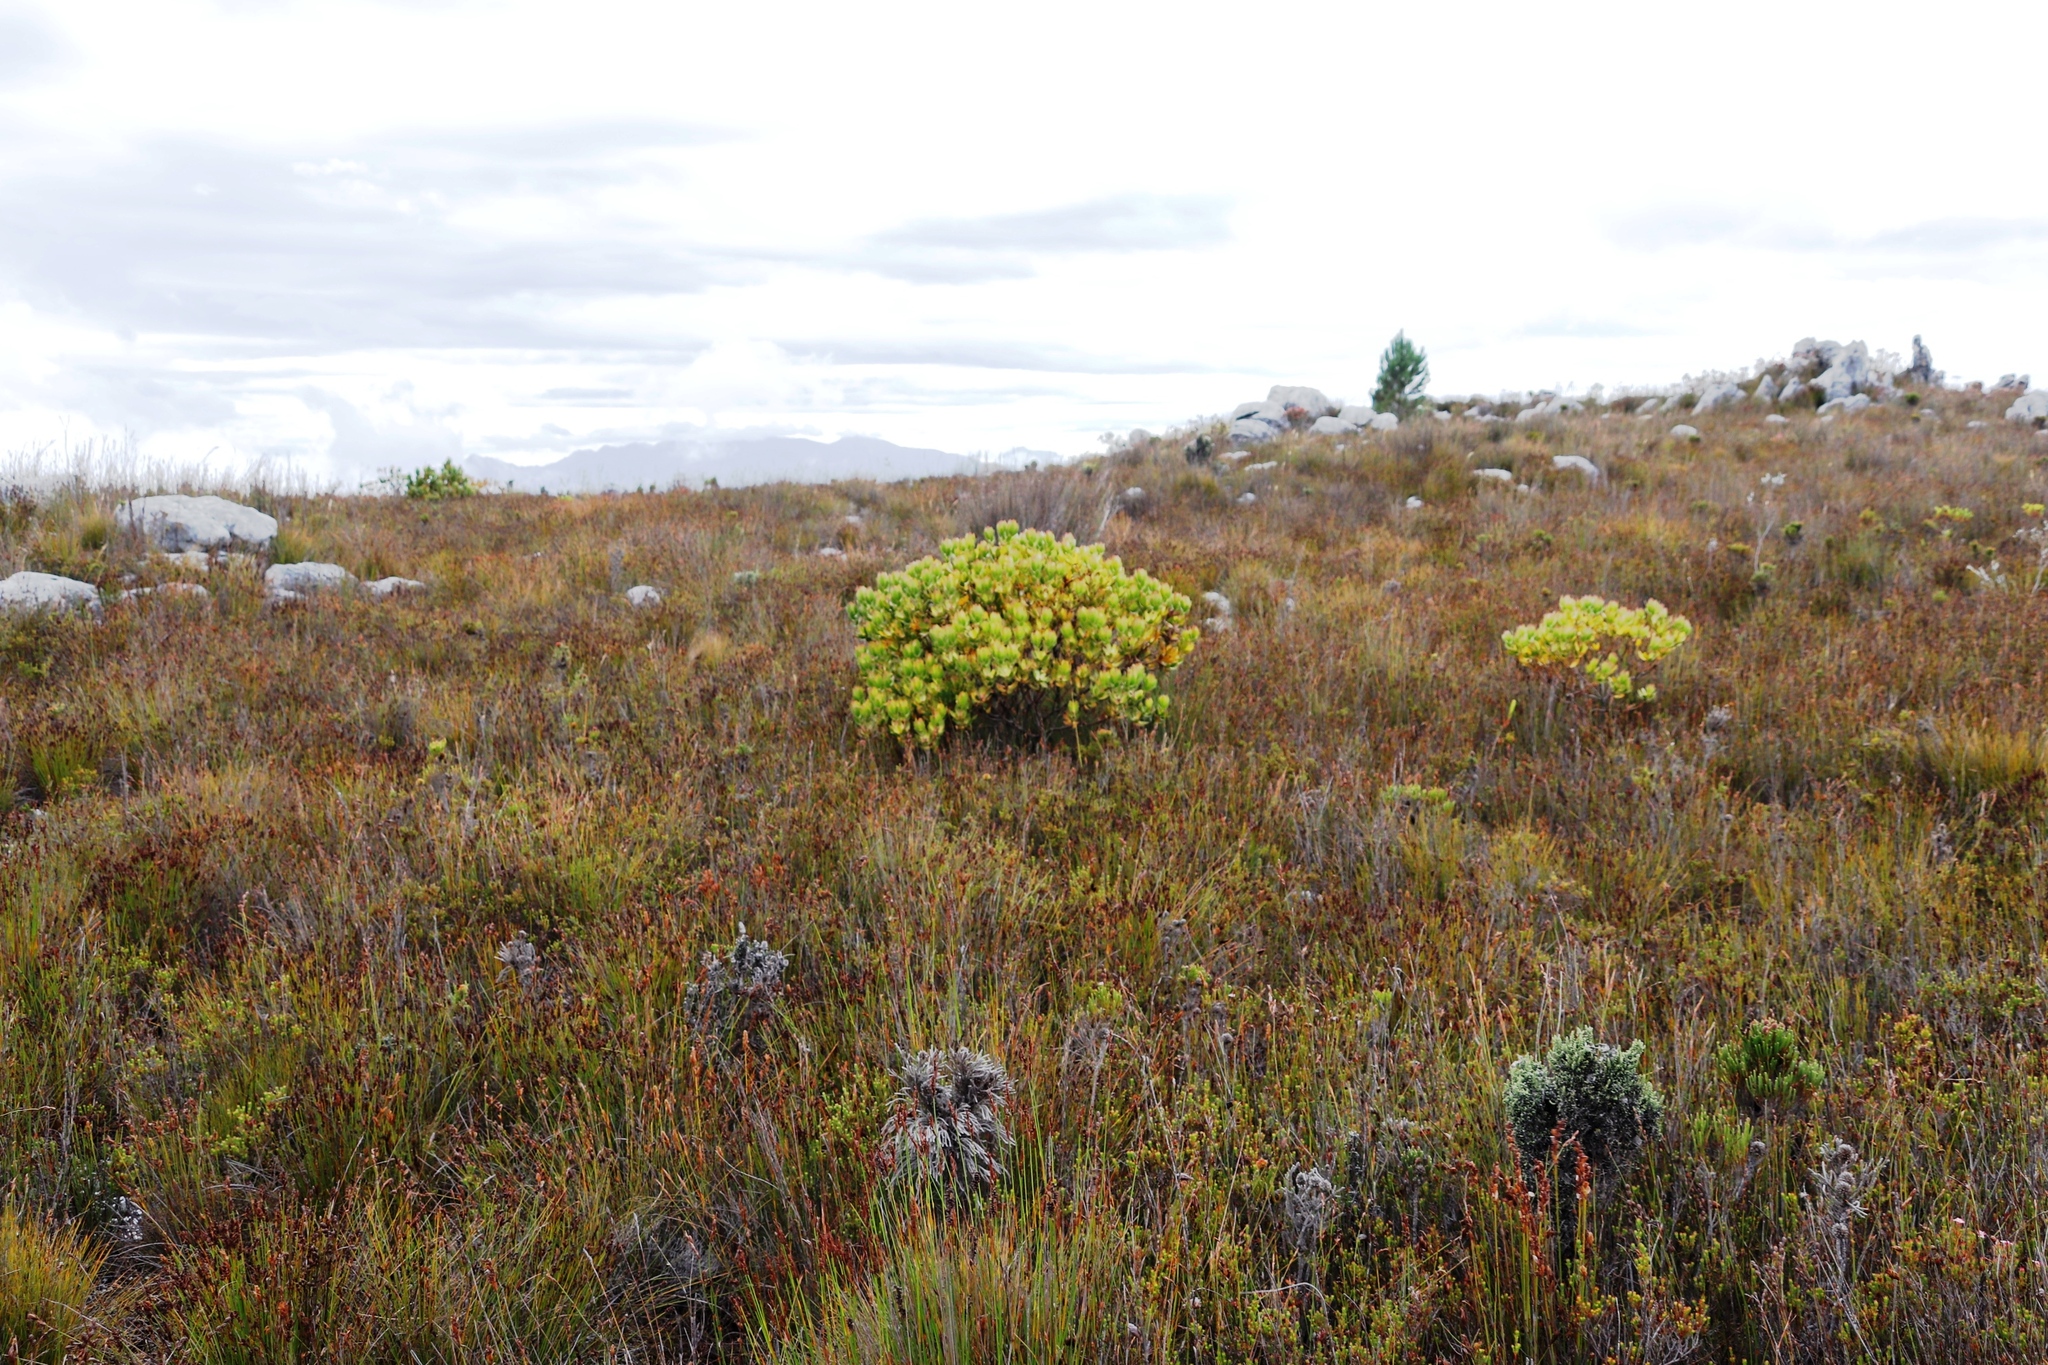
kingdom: Plantae
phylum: Tracheophyta
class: Magnoliopsida
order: Proteales
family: Proteaceae
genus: Leucadendron
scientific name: Leucadendron gandogeri
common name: Broad-leaf conebush
